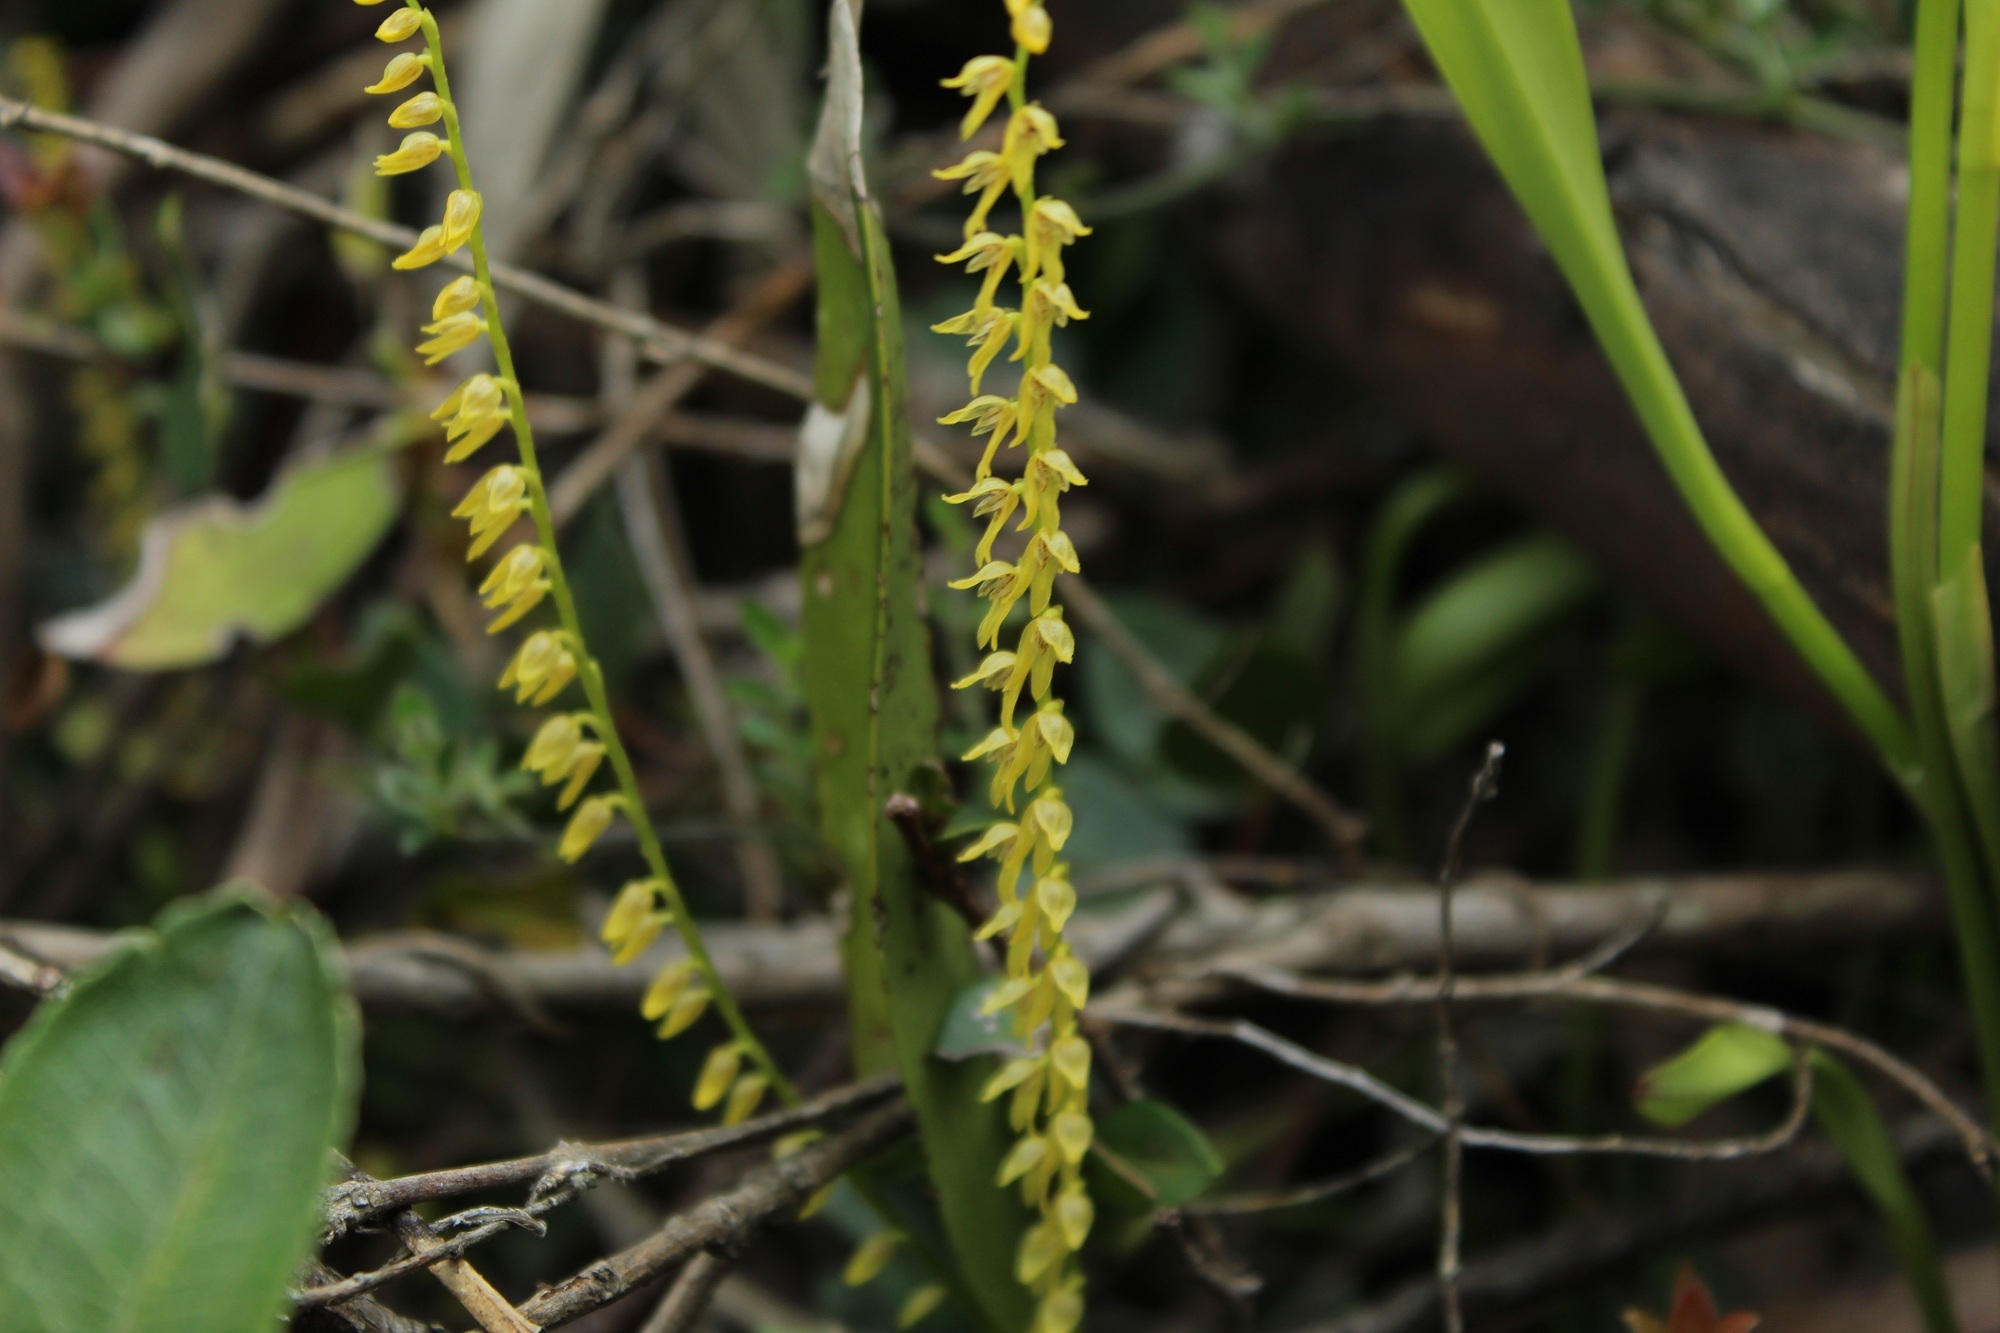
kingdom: Plantae
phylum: Tracheophyta
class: Liliopsida
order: Asparagales
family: Orchidaceae
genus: Stelis
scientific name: Stelis galeata
